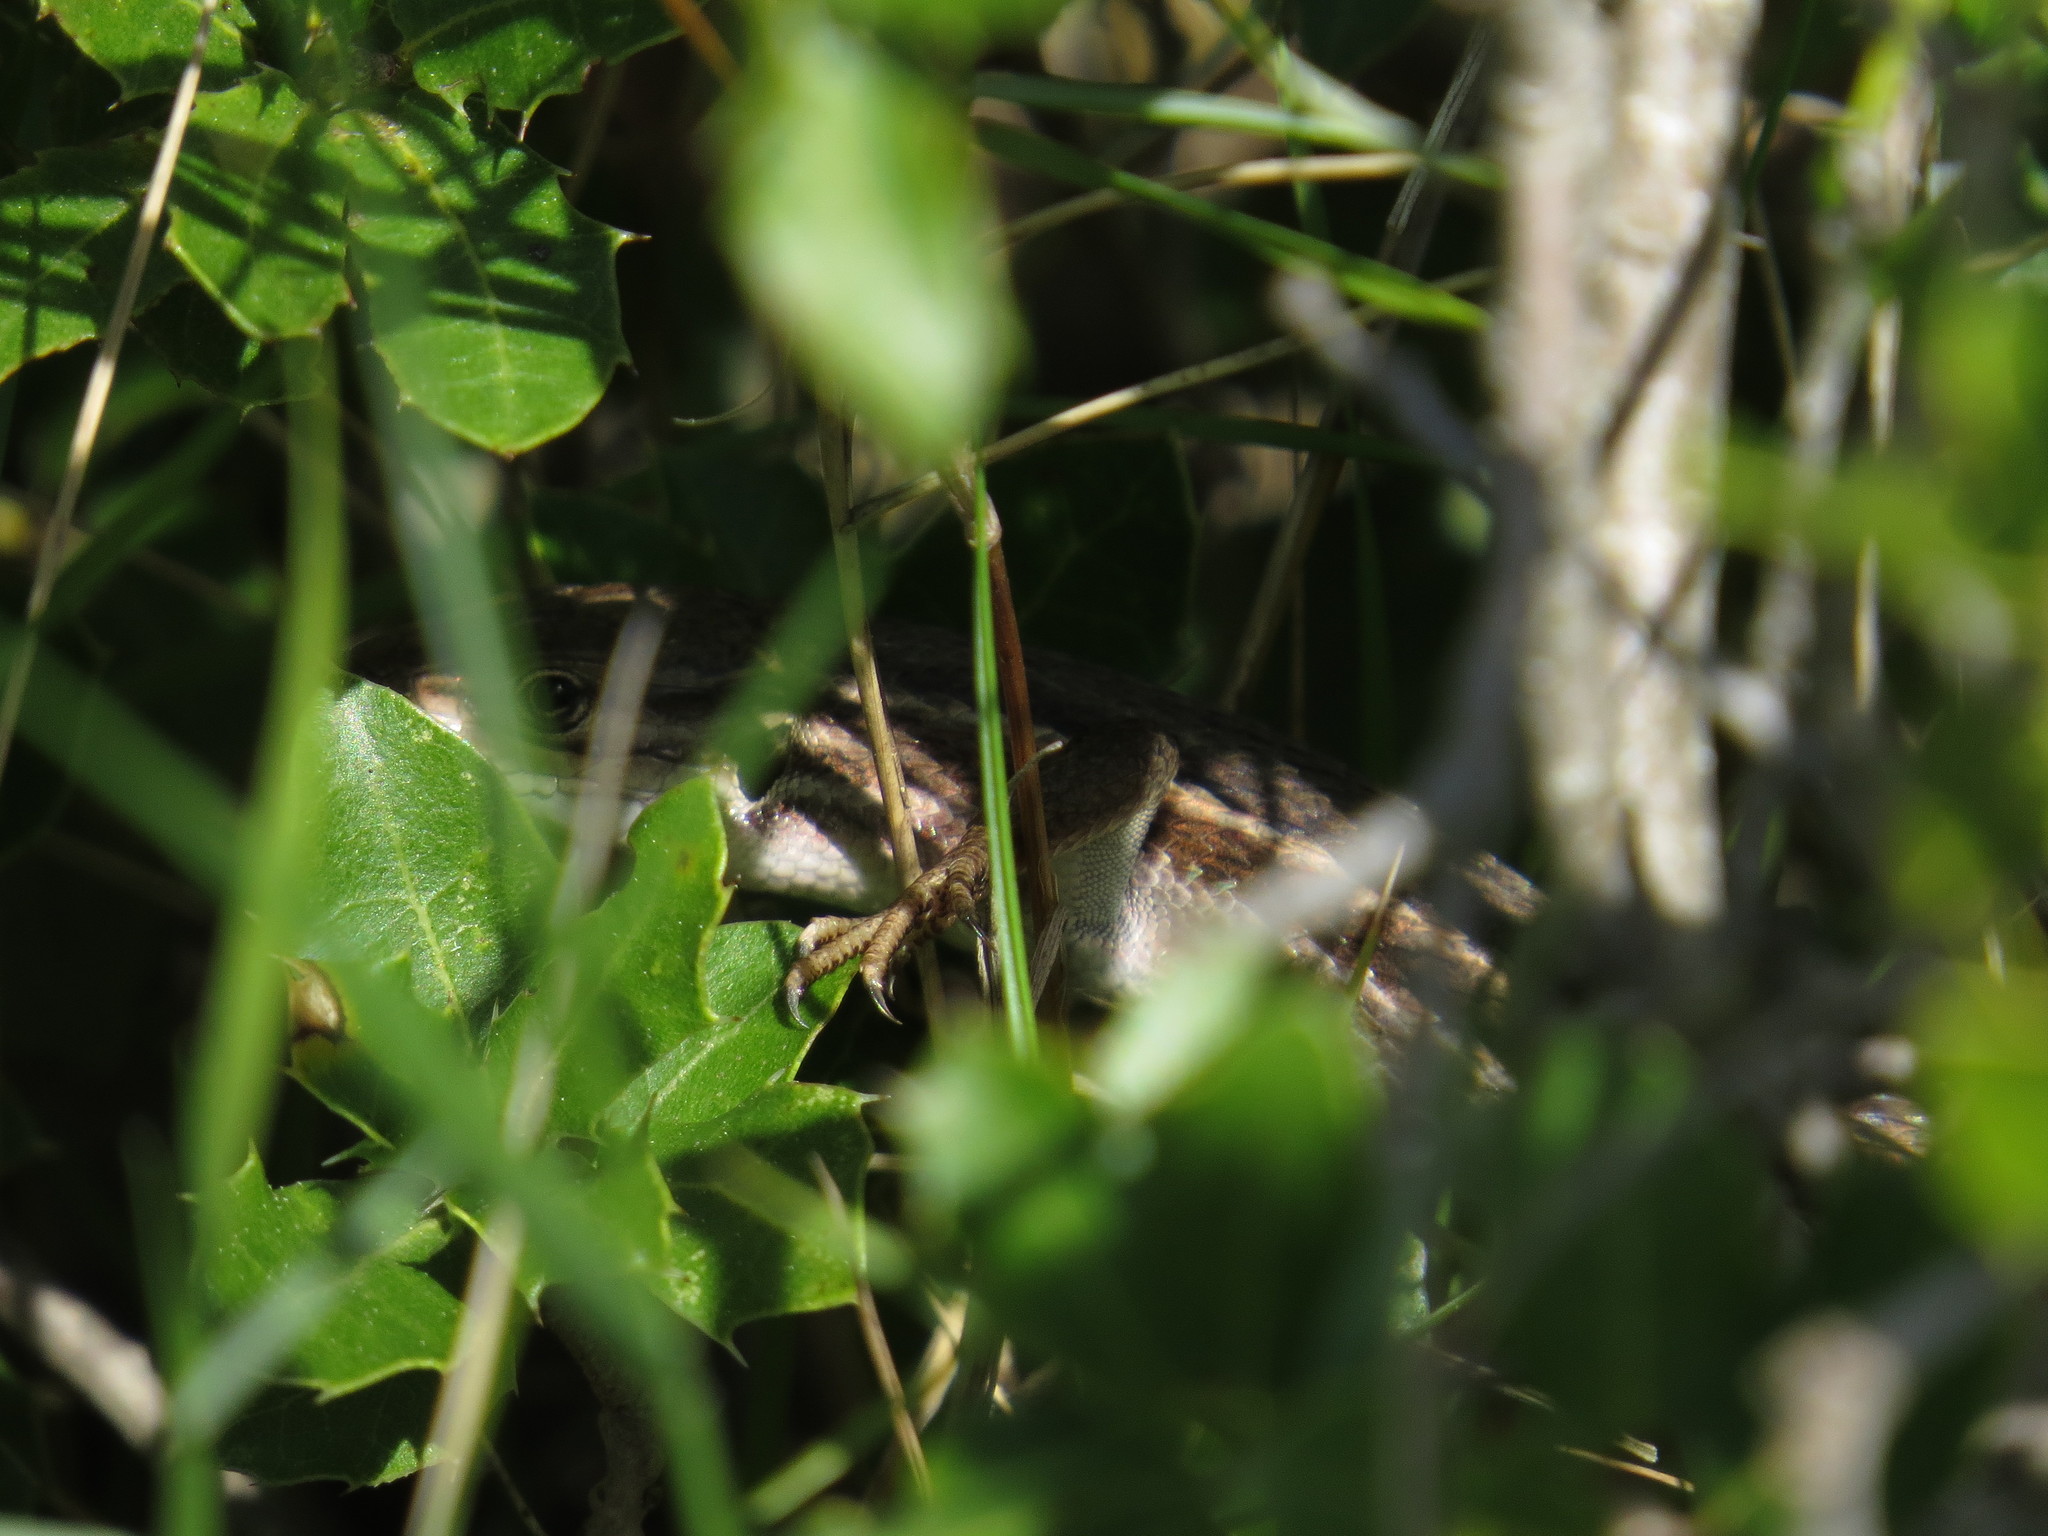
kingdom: Animalia
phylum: Chordata
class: Squamata
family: Lacertidae
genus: Psammodromus
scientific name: Psammodromus algirus
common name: Algerian psammodromus
